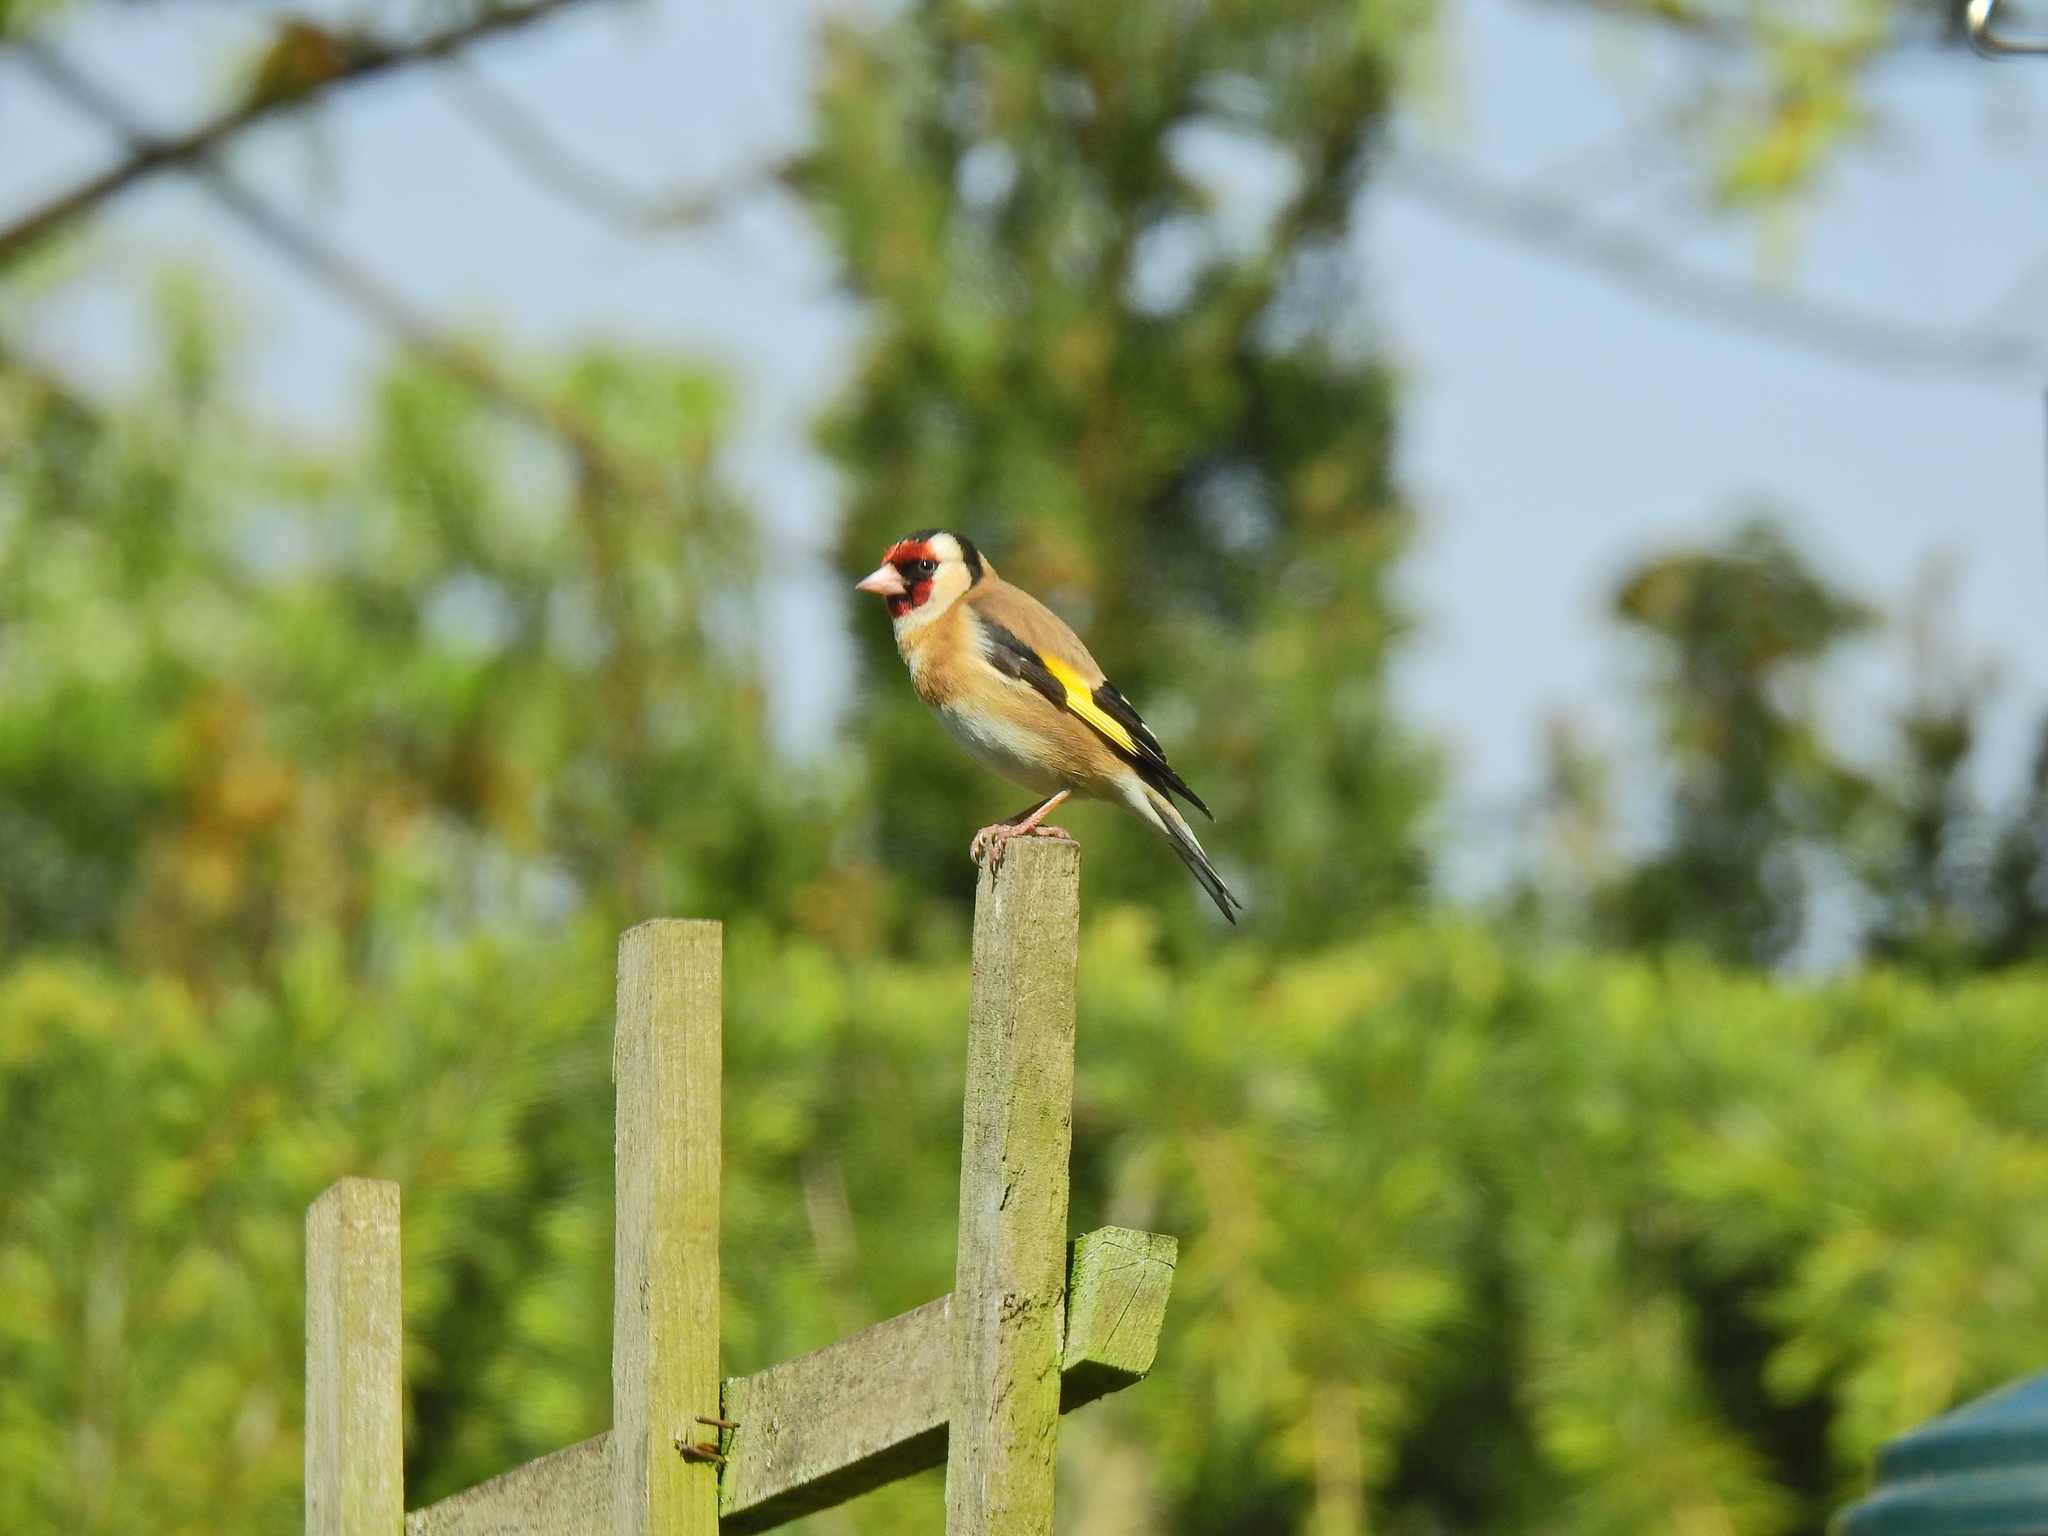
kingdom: Animalia
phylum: Chordata
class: Aves
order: Passeriformes
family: Fringillidae
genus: Carduelis
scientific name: Carduelis carduelis
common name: European goldfinch
